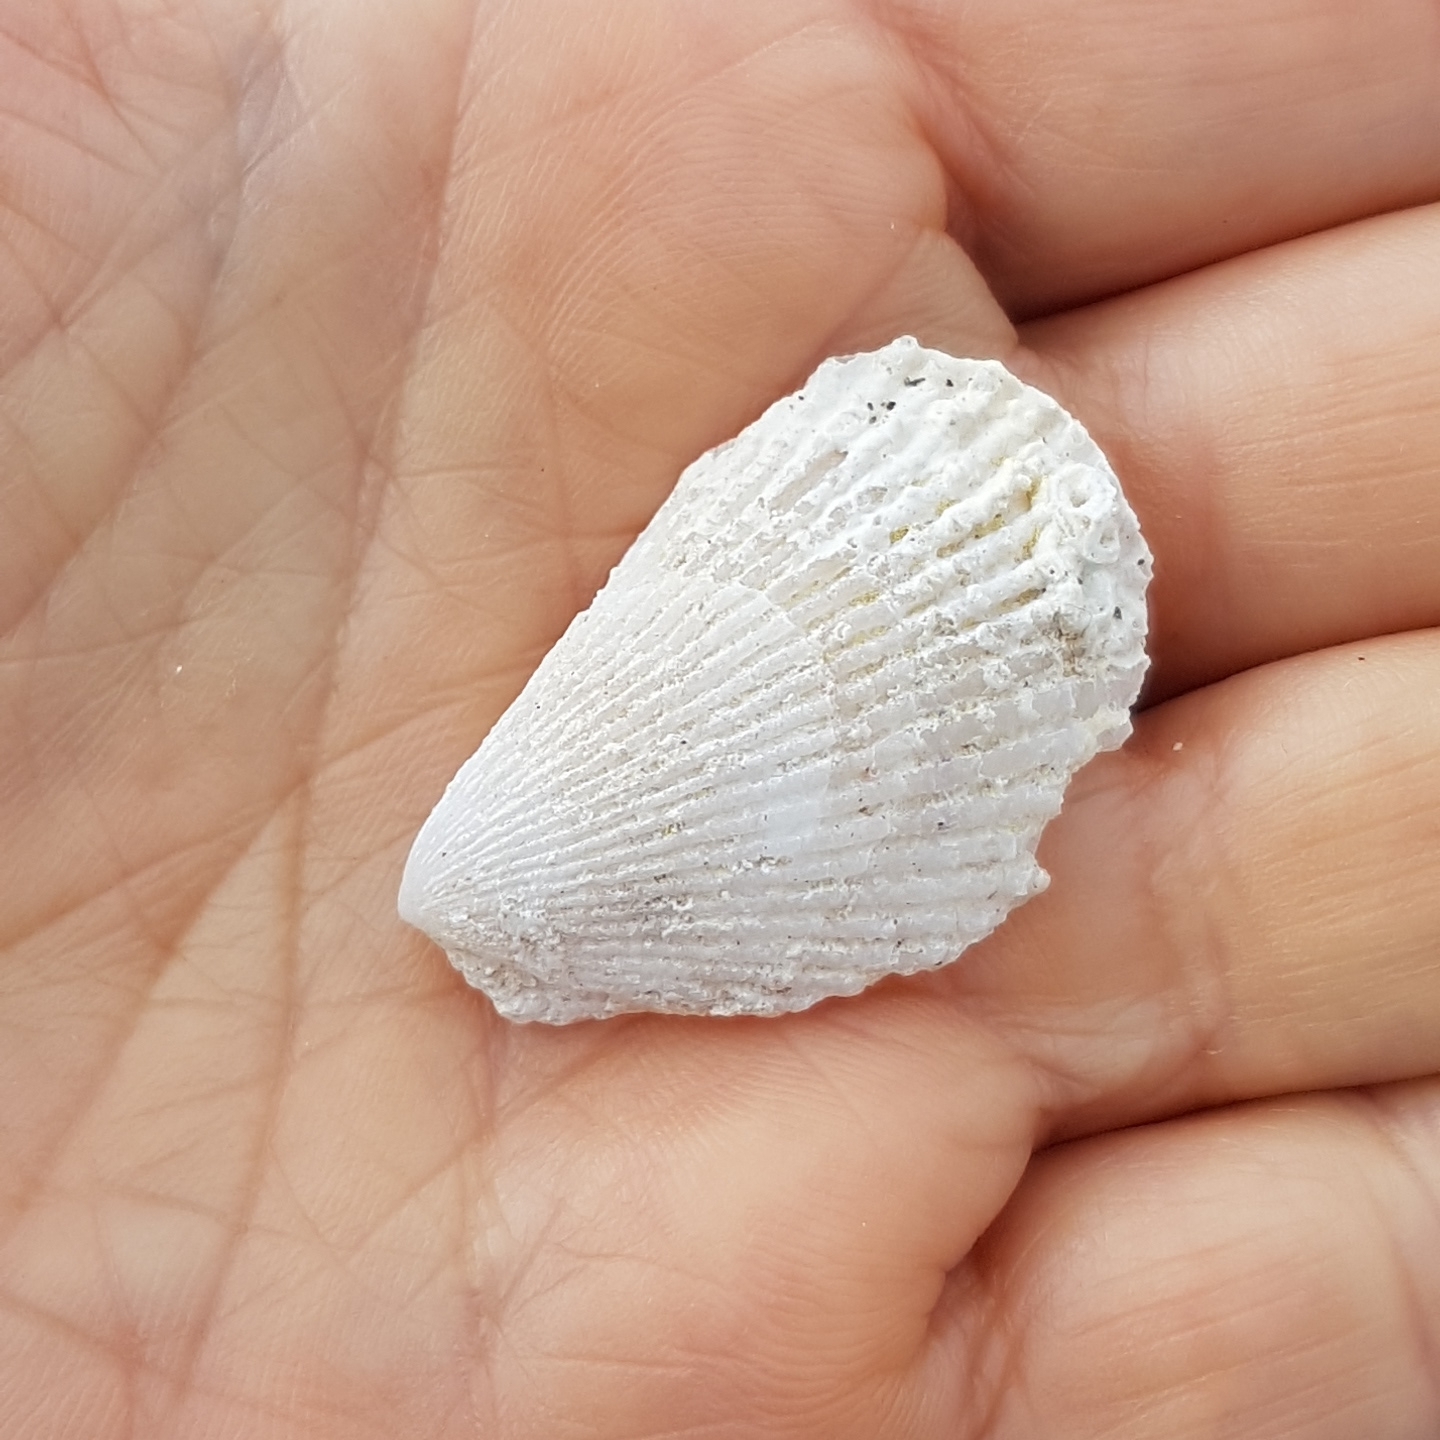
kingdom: Animalia
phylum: Mollusca
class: Bivalvia
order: Limida
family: Limidae
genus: Lima
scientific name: Lima lima
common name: Frilled file shell
